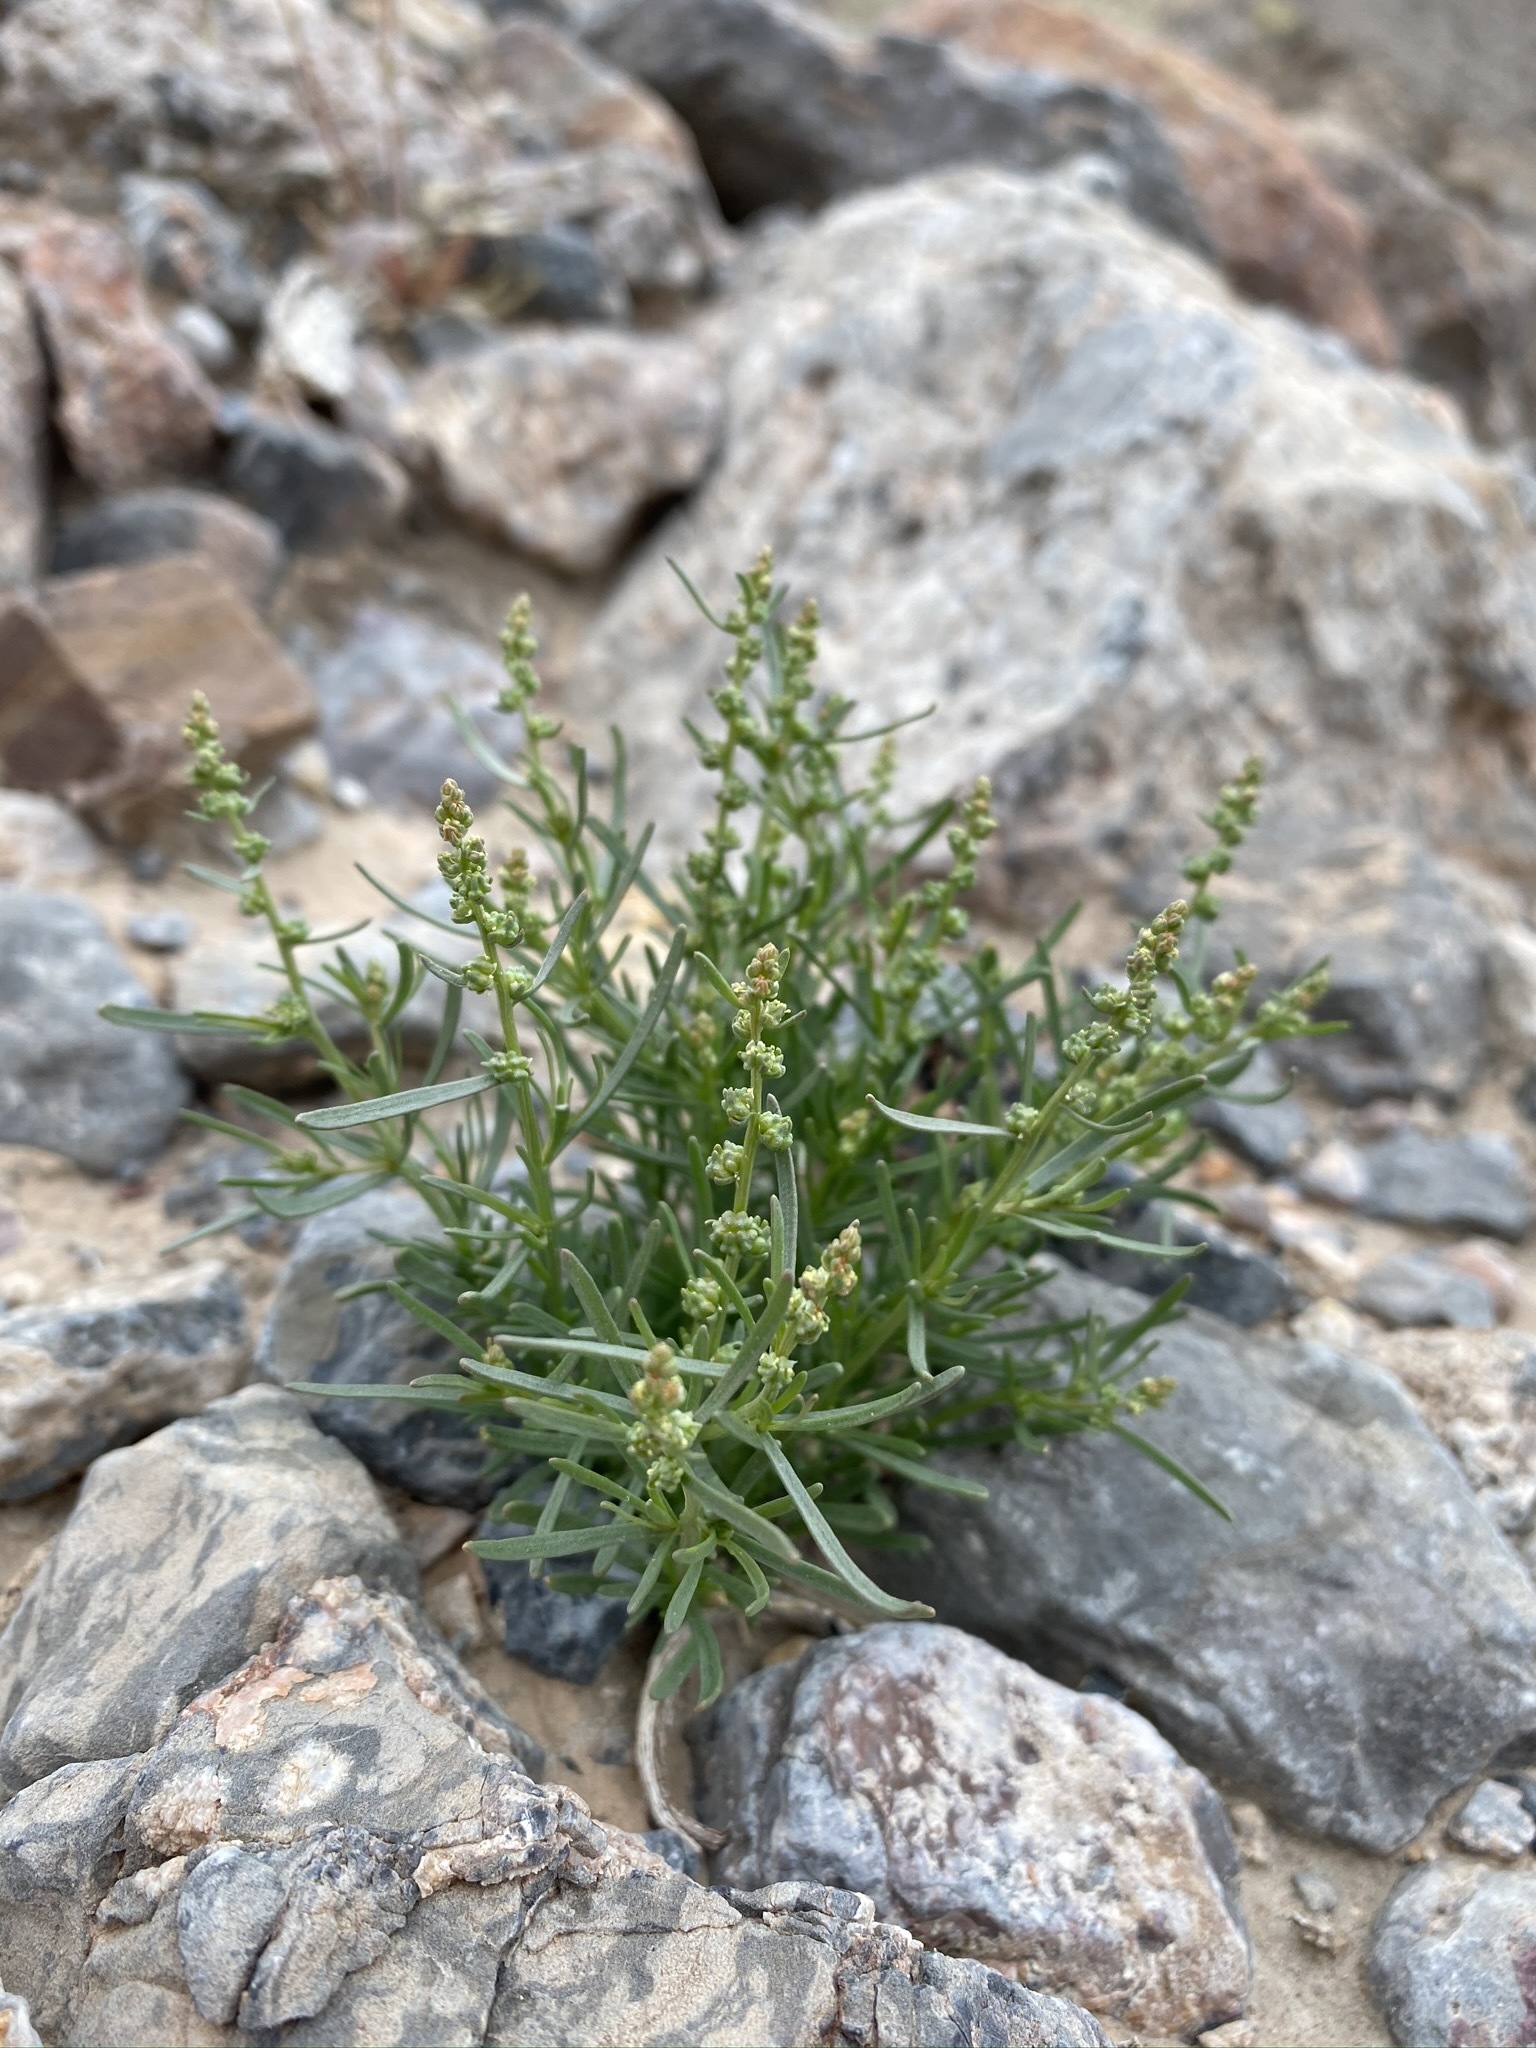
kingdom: Plantae
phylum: Tracheophyta
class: Magnoliopsida
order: Brassicales
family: Resedaceae
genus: Oligomeris
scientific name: Oligomeris linifolia
